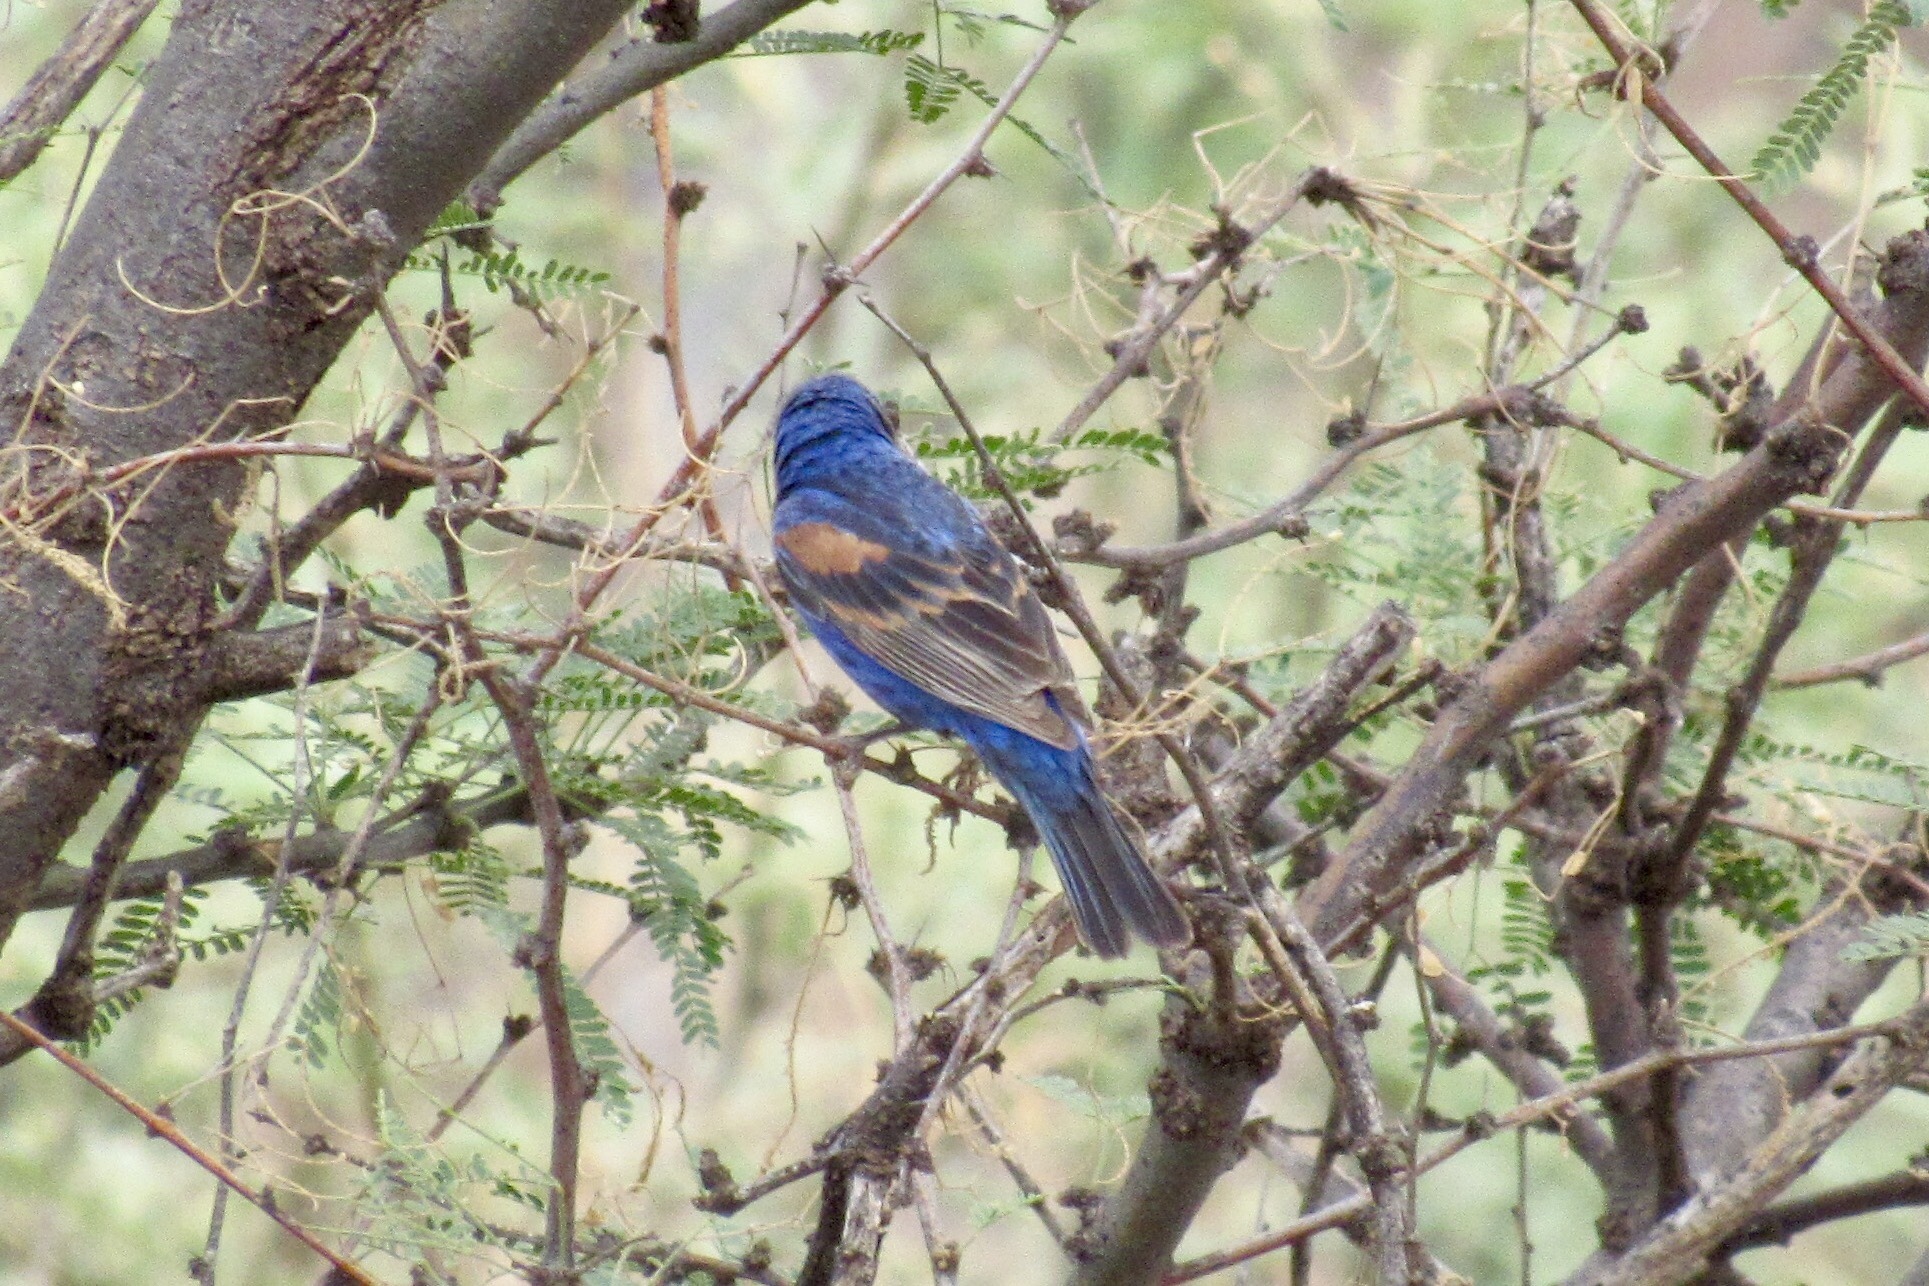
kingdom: Animalia
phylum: Chordata
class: Aves
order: Passeriformes
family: Cardinalidae
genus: Passerina
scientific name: Passerina caerulea
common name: Blue grosbeak
